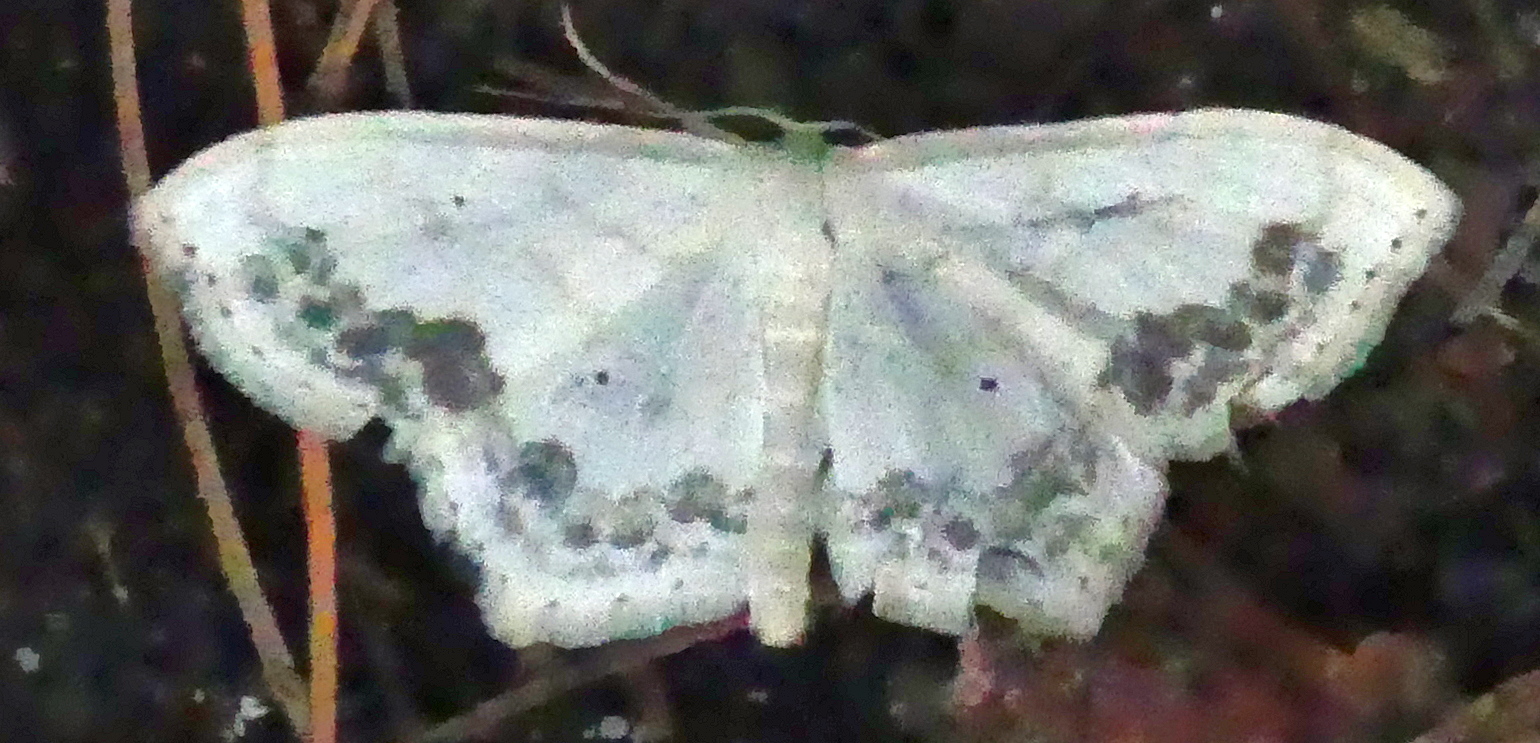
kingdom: Animalia
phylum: Arthropoda
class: Insecta
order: Lepidoptera
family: Geometridae
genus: Scopula
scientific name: Scopula limboundata
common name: Large lace border
